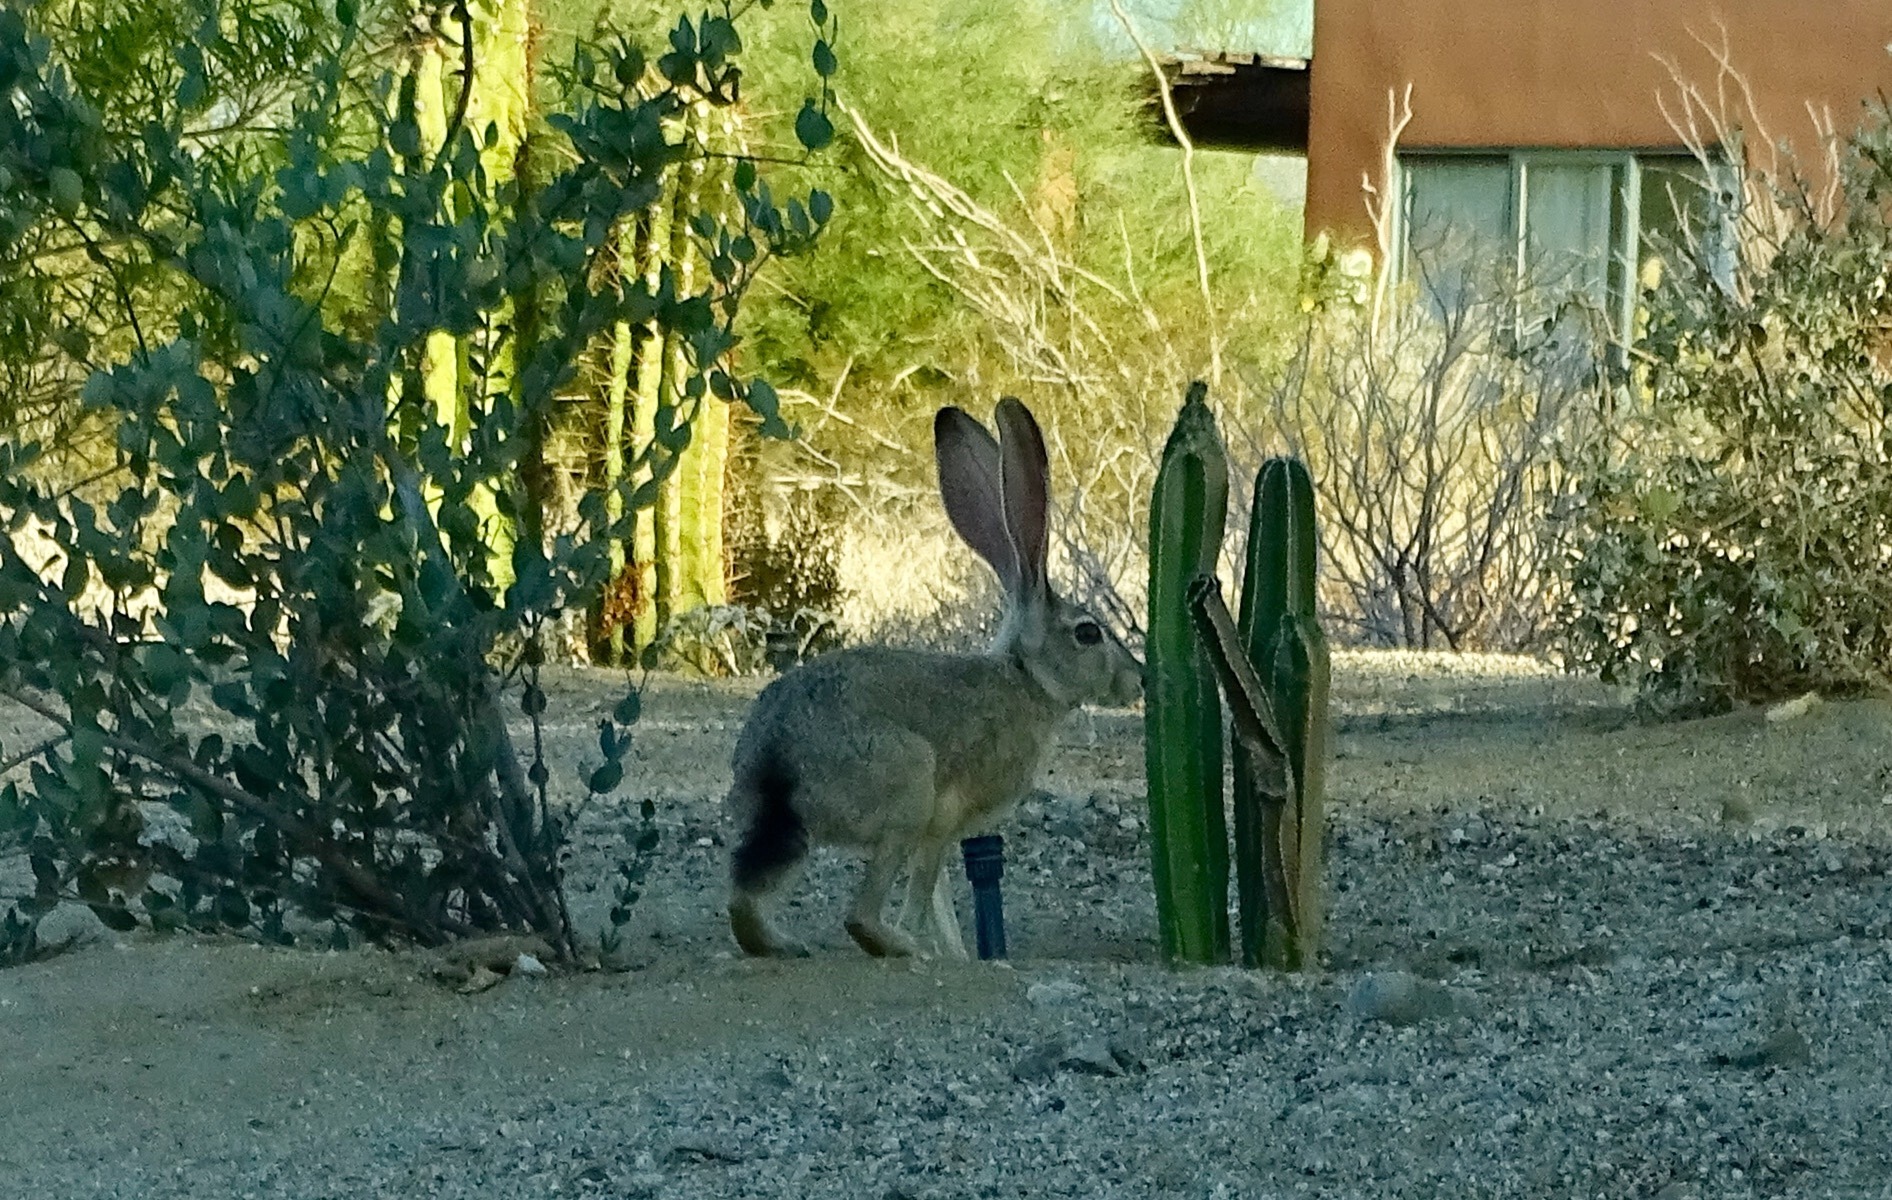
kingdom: Animalia
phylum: Chordata
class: Mammalia
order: Lagomorpha
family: Leporidae
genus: Lepus
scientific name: Lepus californicus
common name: Black-tailed jackrabbit
